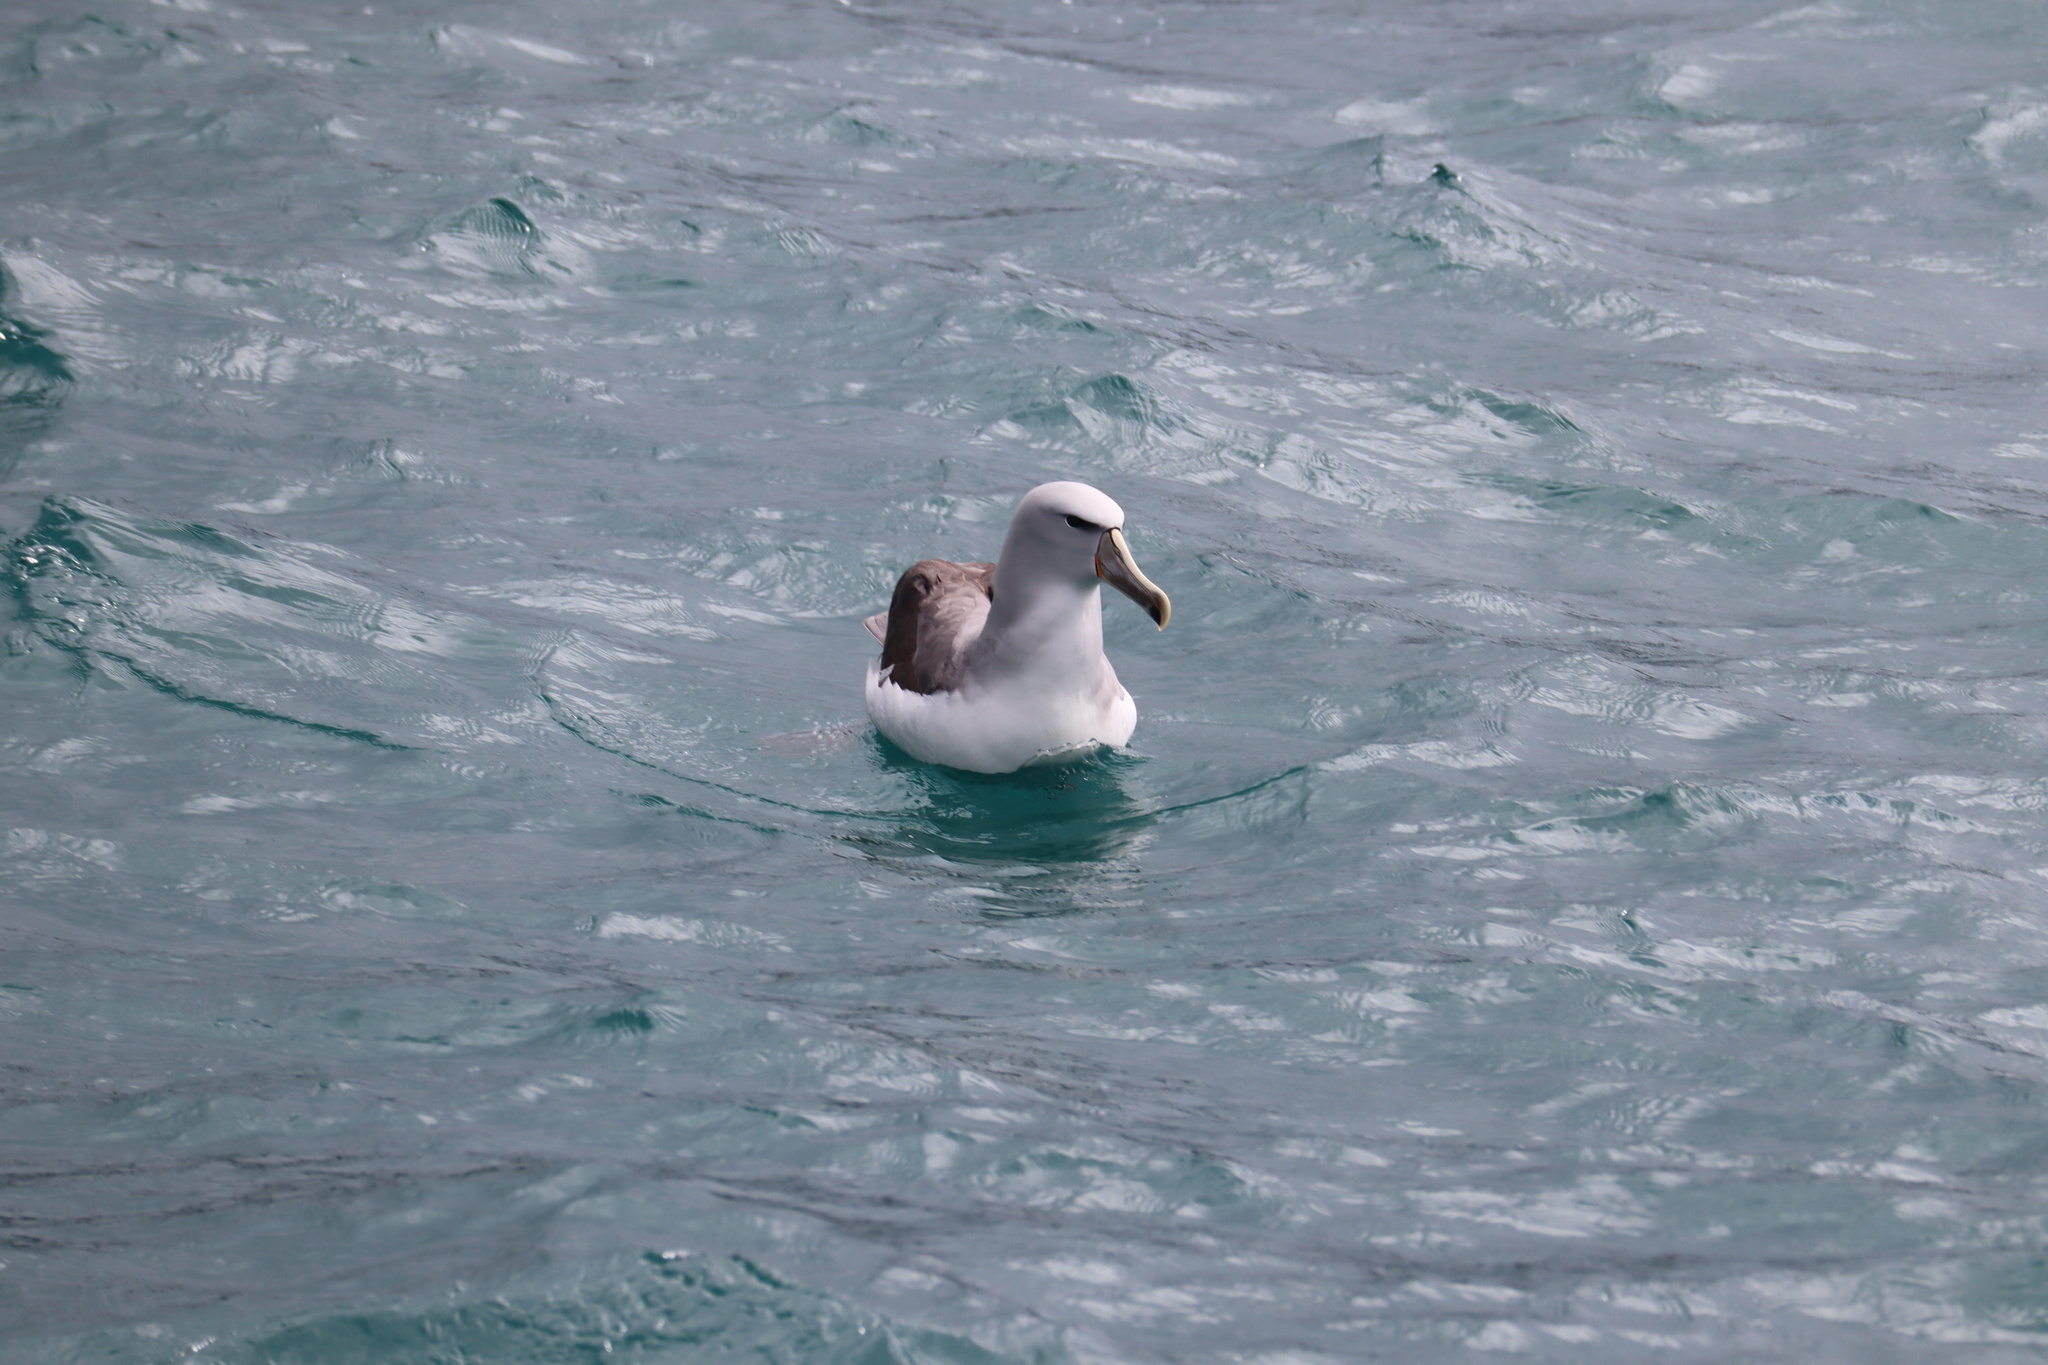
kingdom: Animalia
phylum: Chordata
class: Aves
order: Procellariiformes
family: Diomedeidae
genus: Thalassarche
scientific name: Thalassarche salvini
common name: Salvin's albatross
